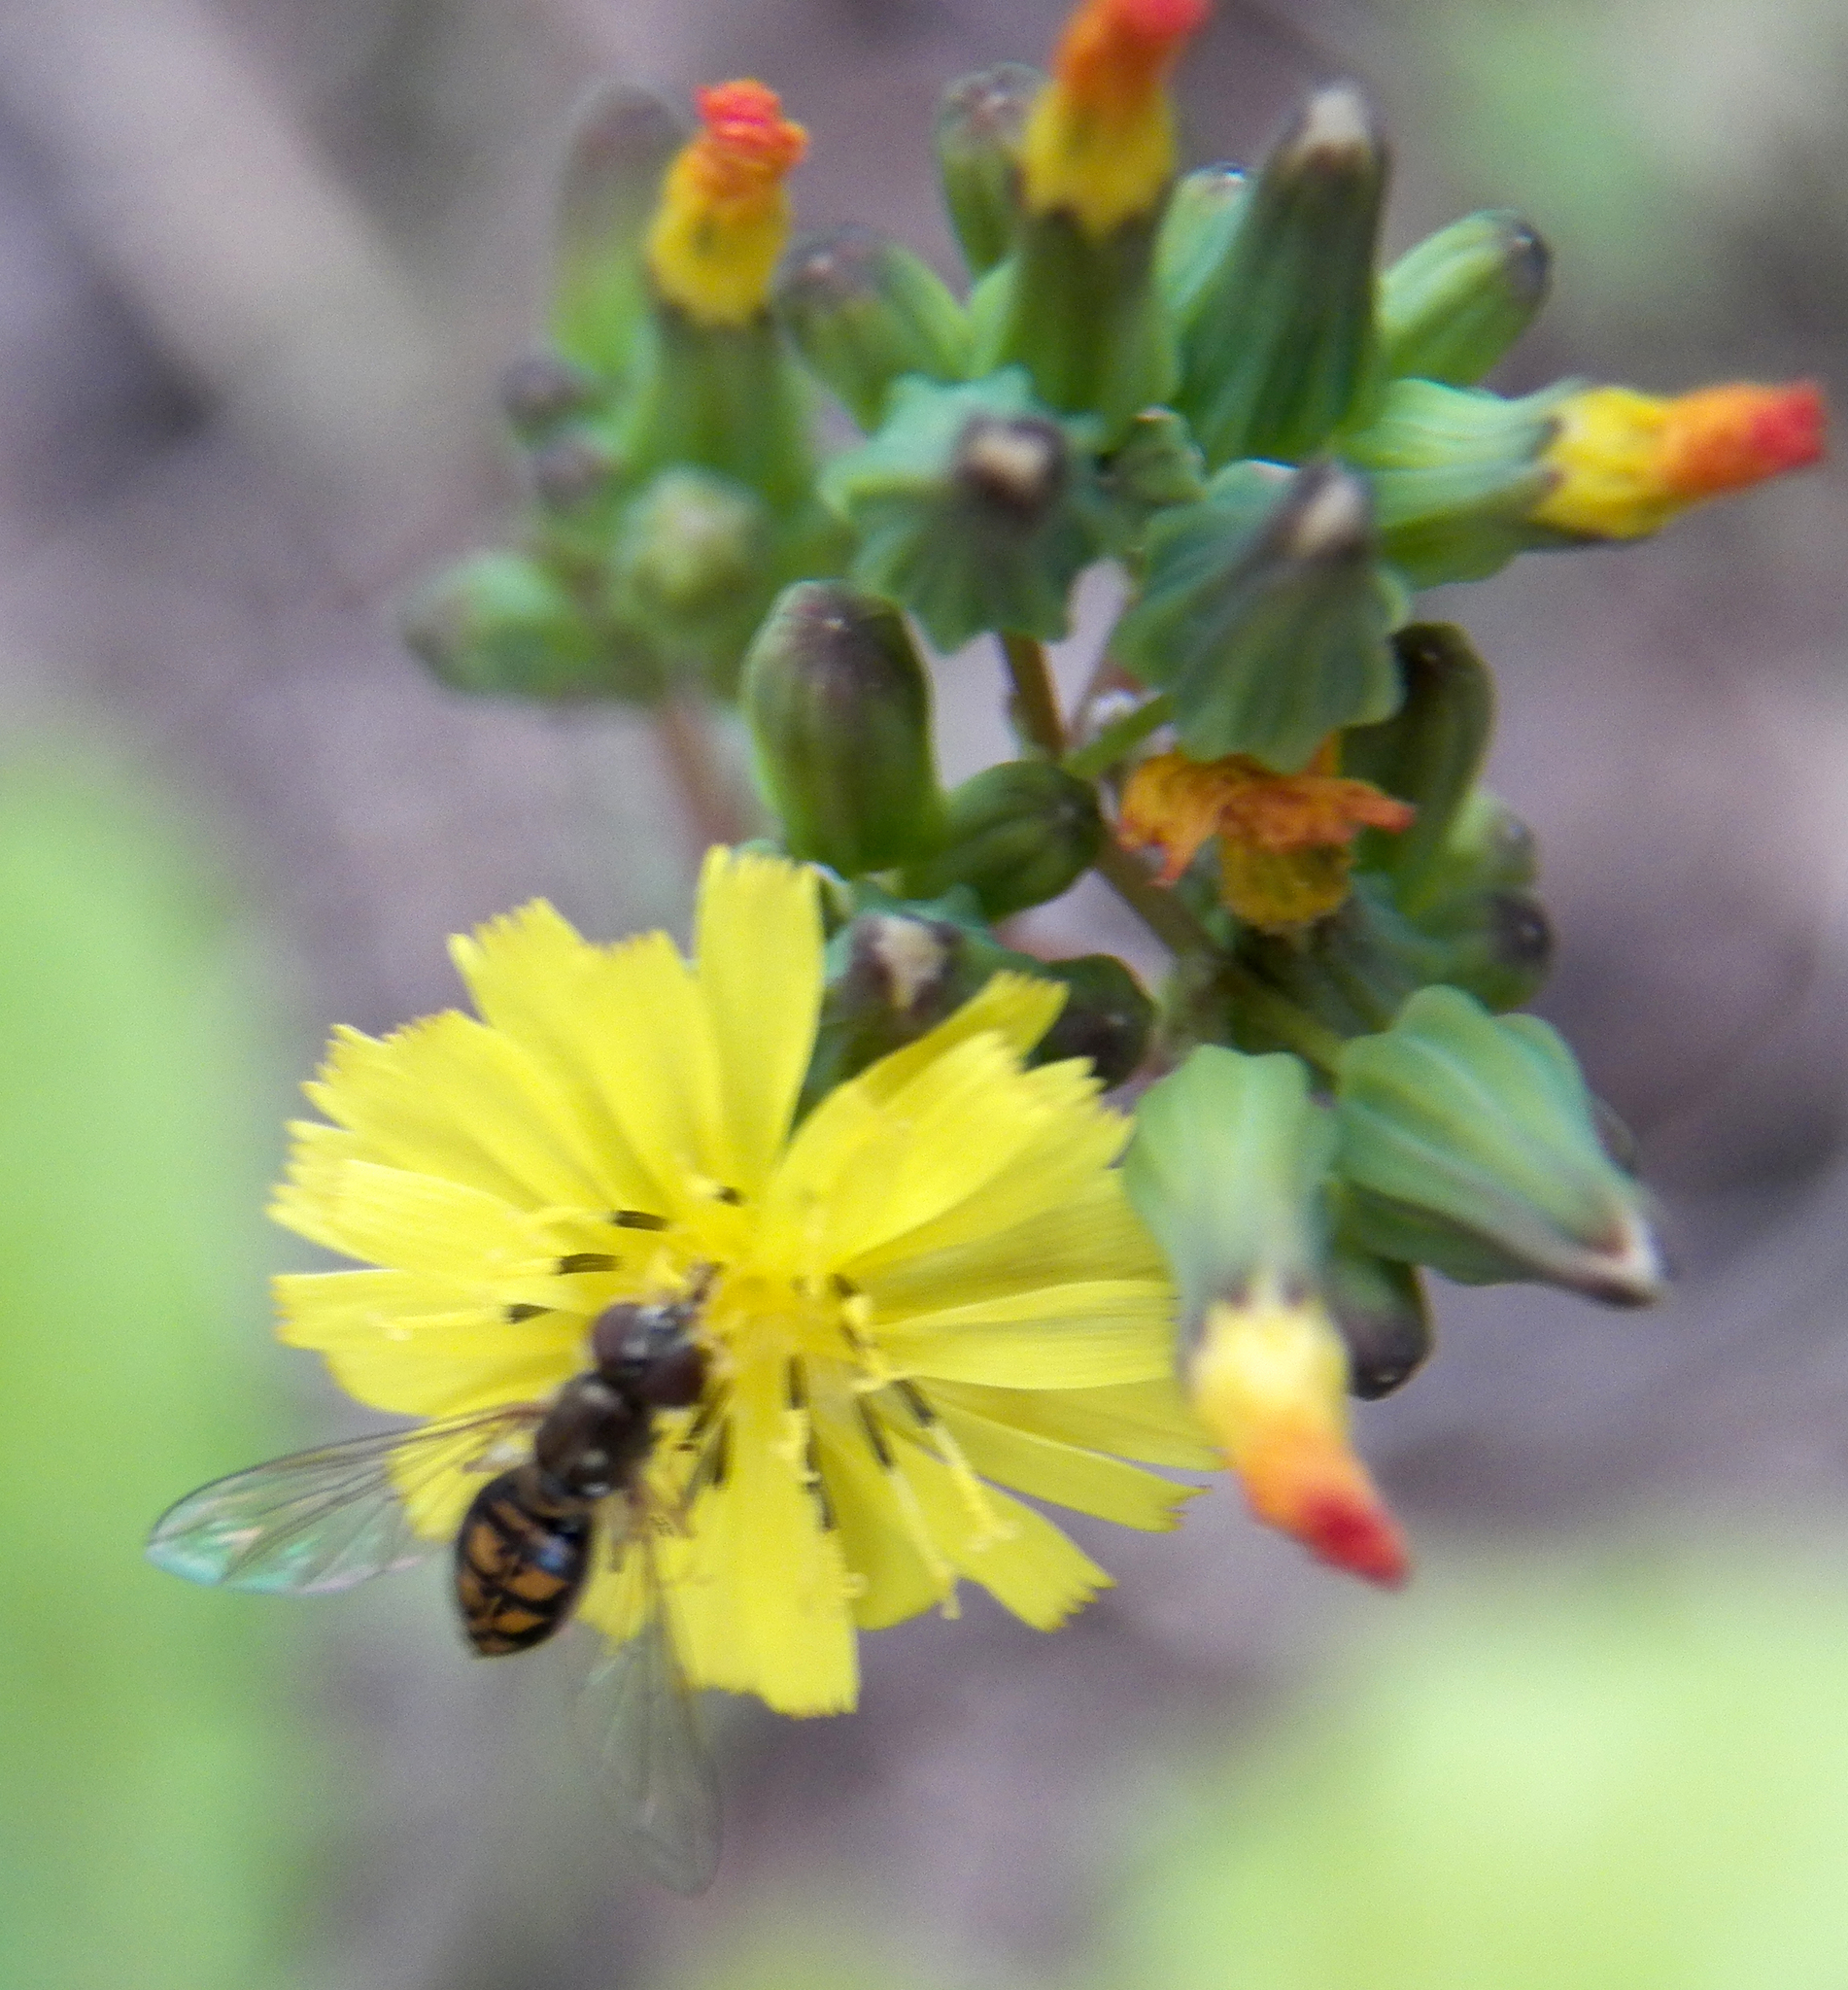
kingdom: Animalia
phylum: Arthropoda
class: Insecta
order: Diptera
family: Syrphidae
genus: Toxomerus
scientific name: Toxomerus marginatus
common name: Syrphid fly
